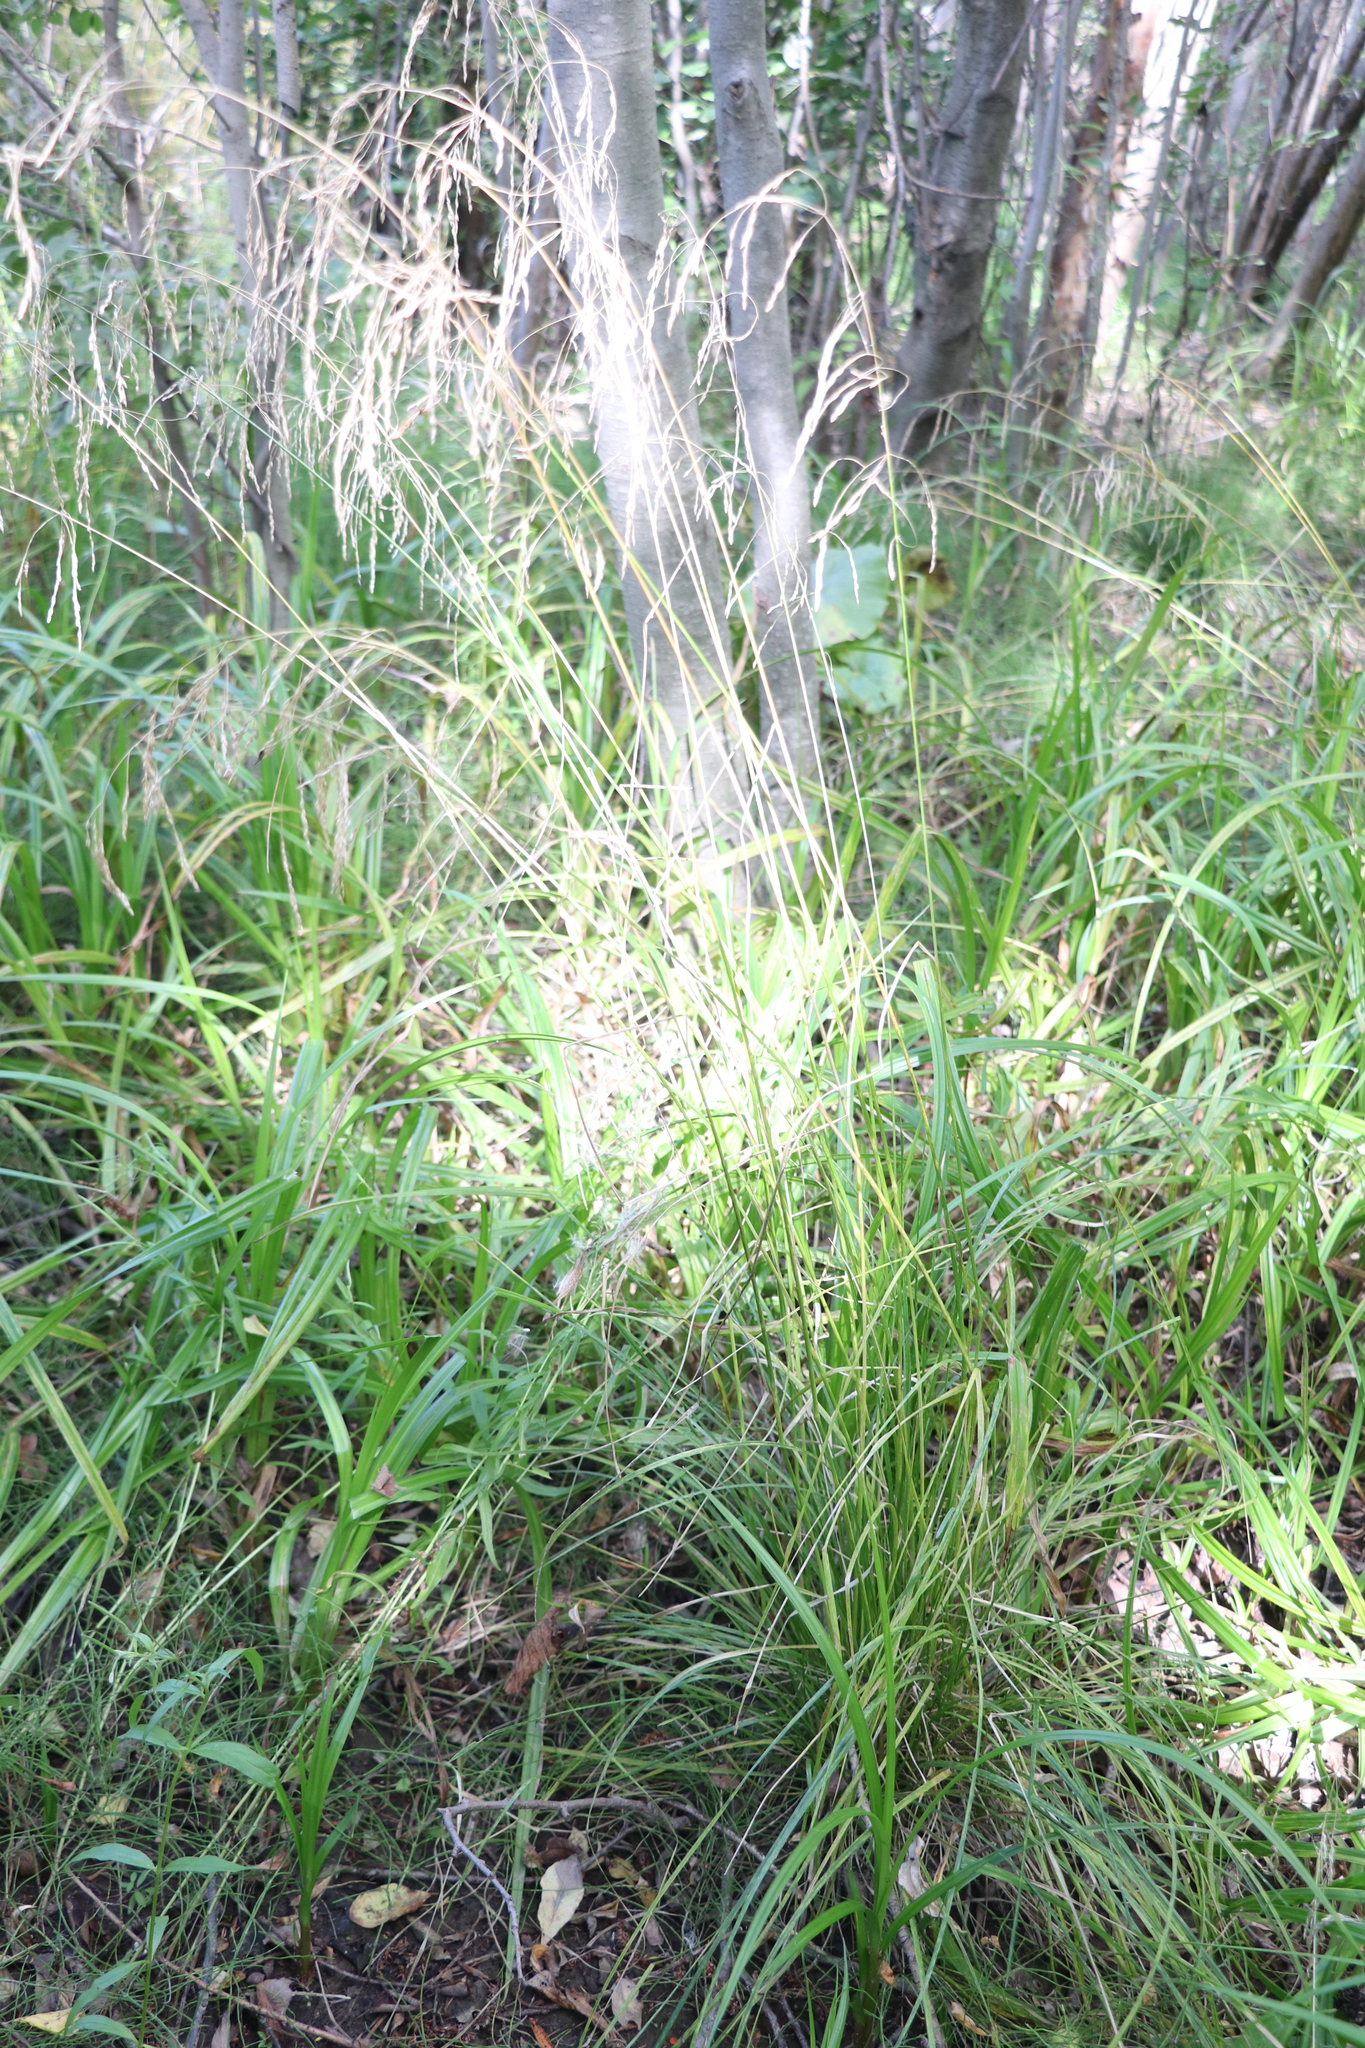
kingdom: Plantae
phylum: Tracheophyta
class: Liliopsida
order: Poales
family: Poaceae
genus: Deschampsia
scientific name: Deschampsia cespitosa
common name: Tufted hair-grass
